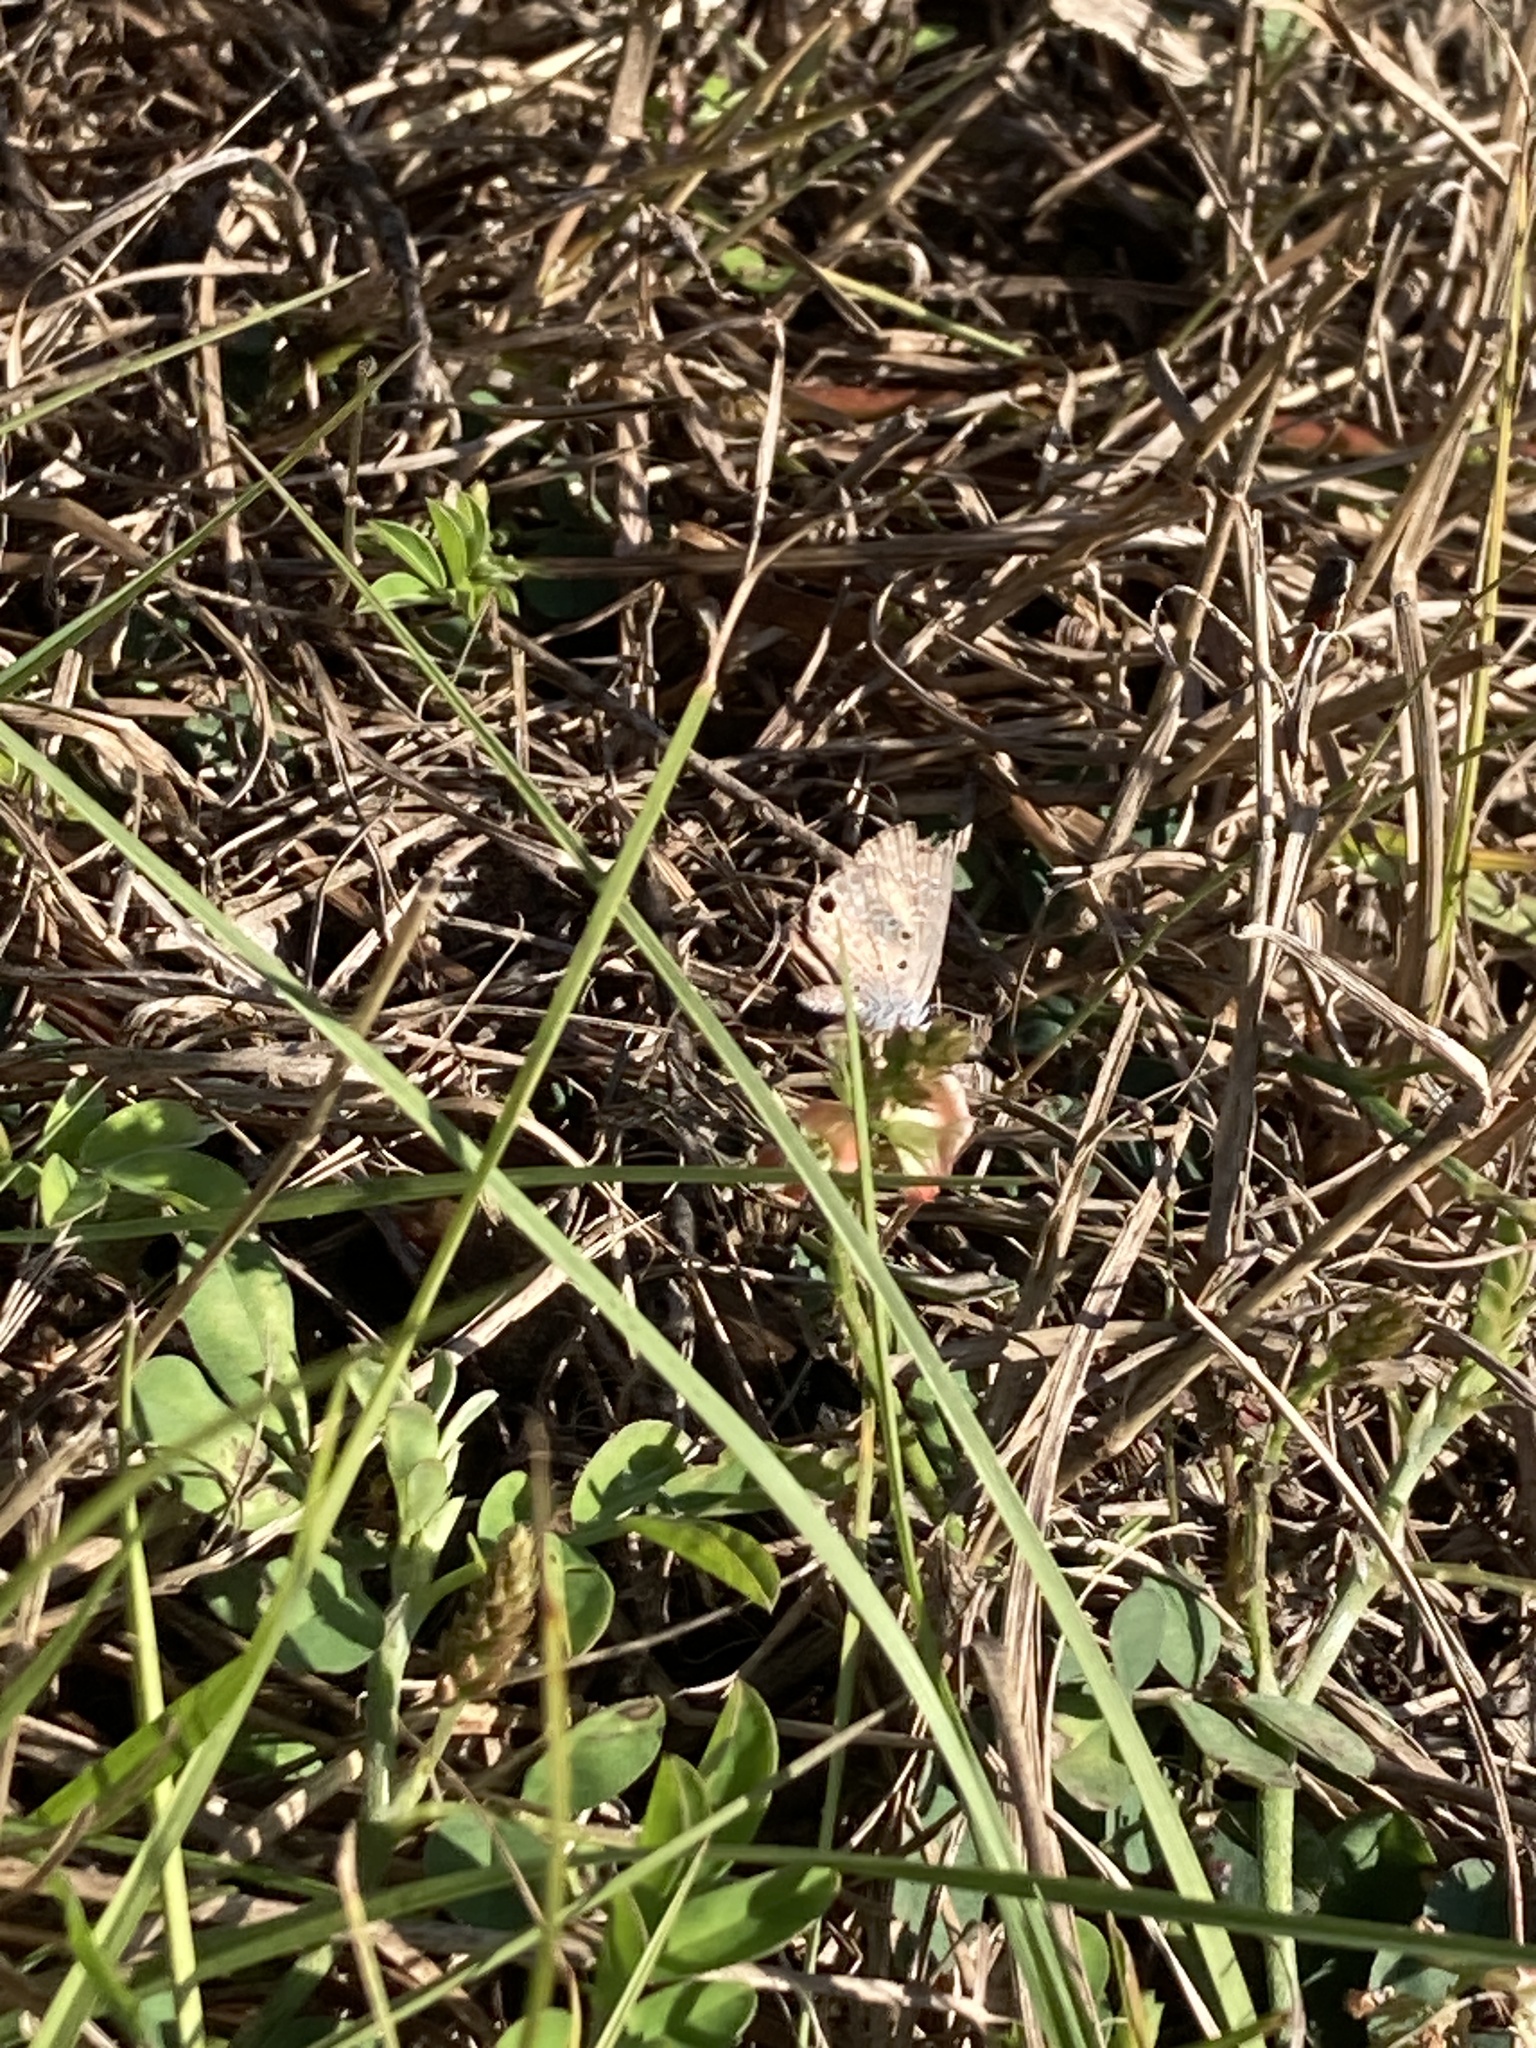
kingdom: Animalia
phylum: Arthropoda
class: Insecta
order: Lepidoptera
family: Lycaenidae
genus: Hemiargus
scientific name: Hemiargus ceraunus
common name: Ceraunus blue
